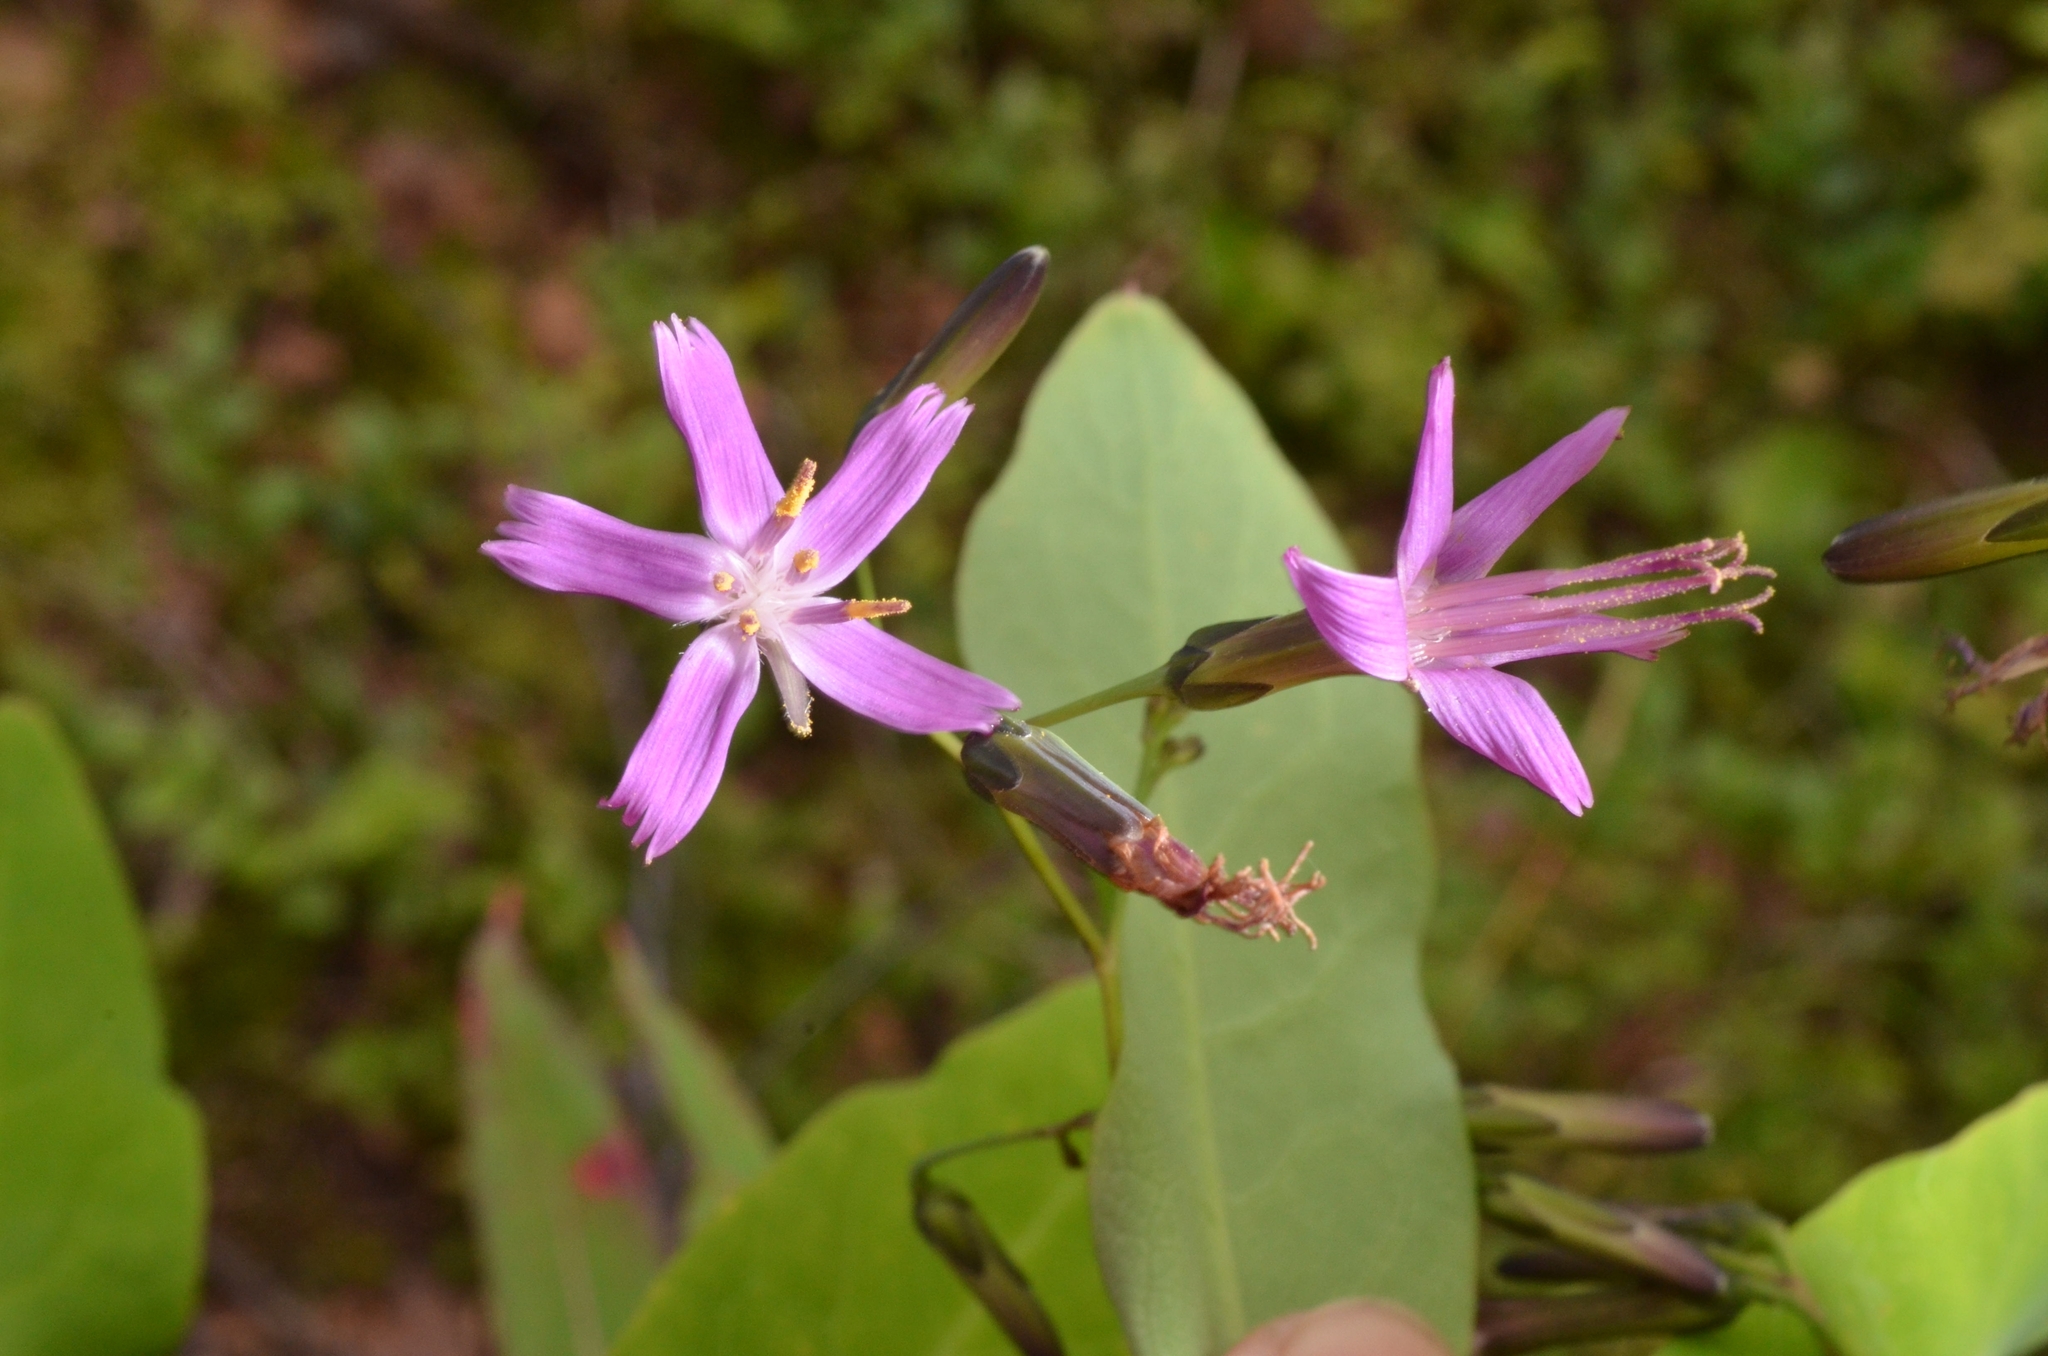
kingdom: Plantae
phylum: Tracheophyta
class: Magnoliopsida
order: Asterales
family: Asteraceae
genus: Prenanthes
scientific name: Prenanthes purpurea
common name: Purple lettuce
